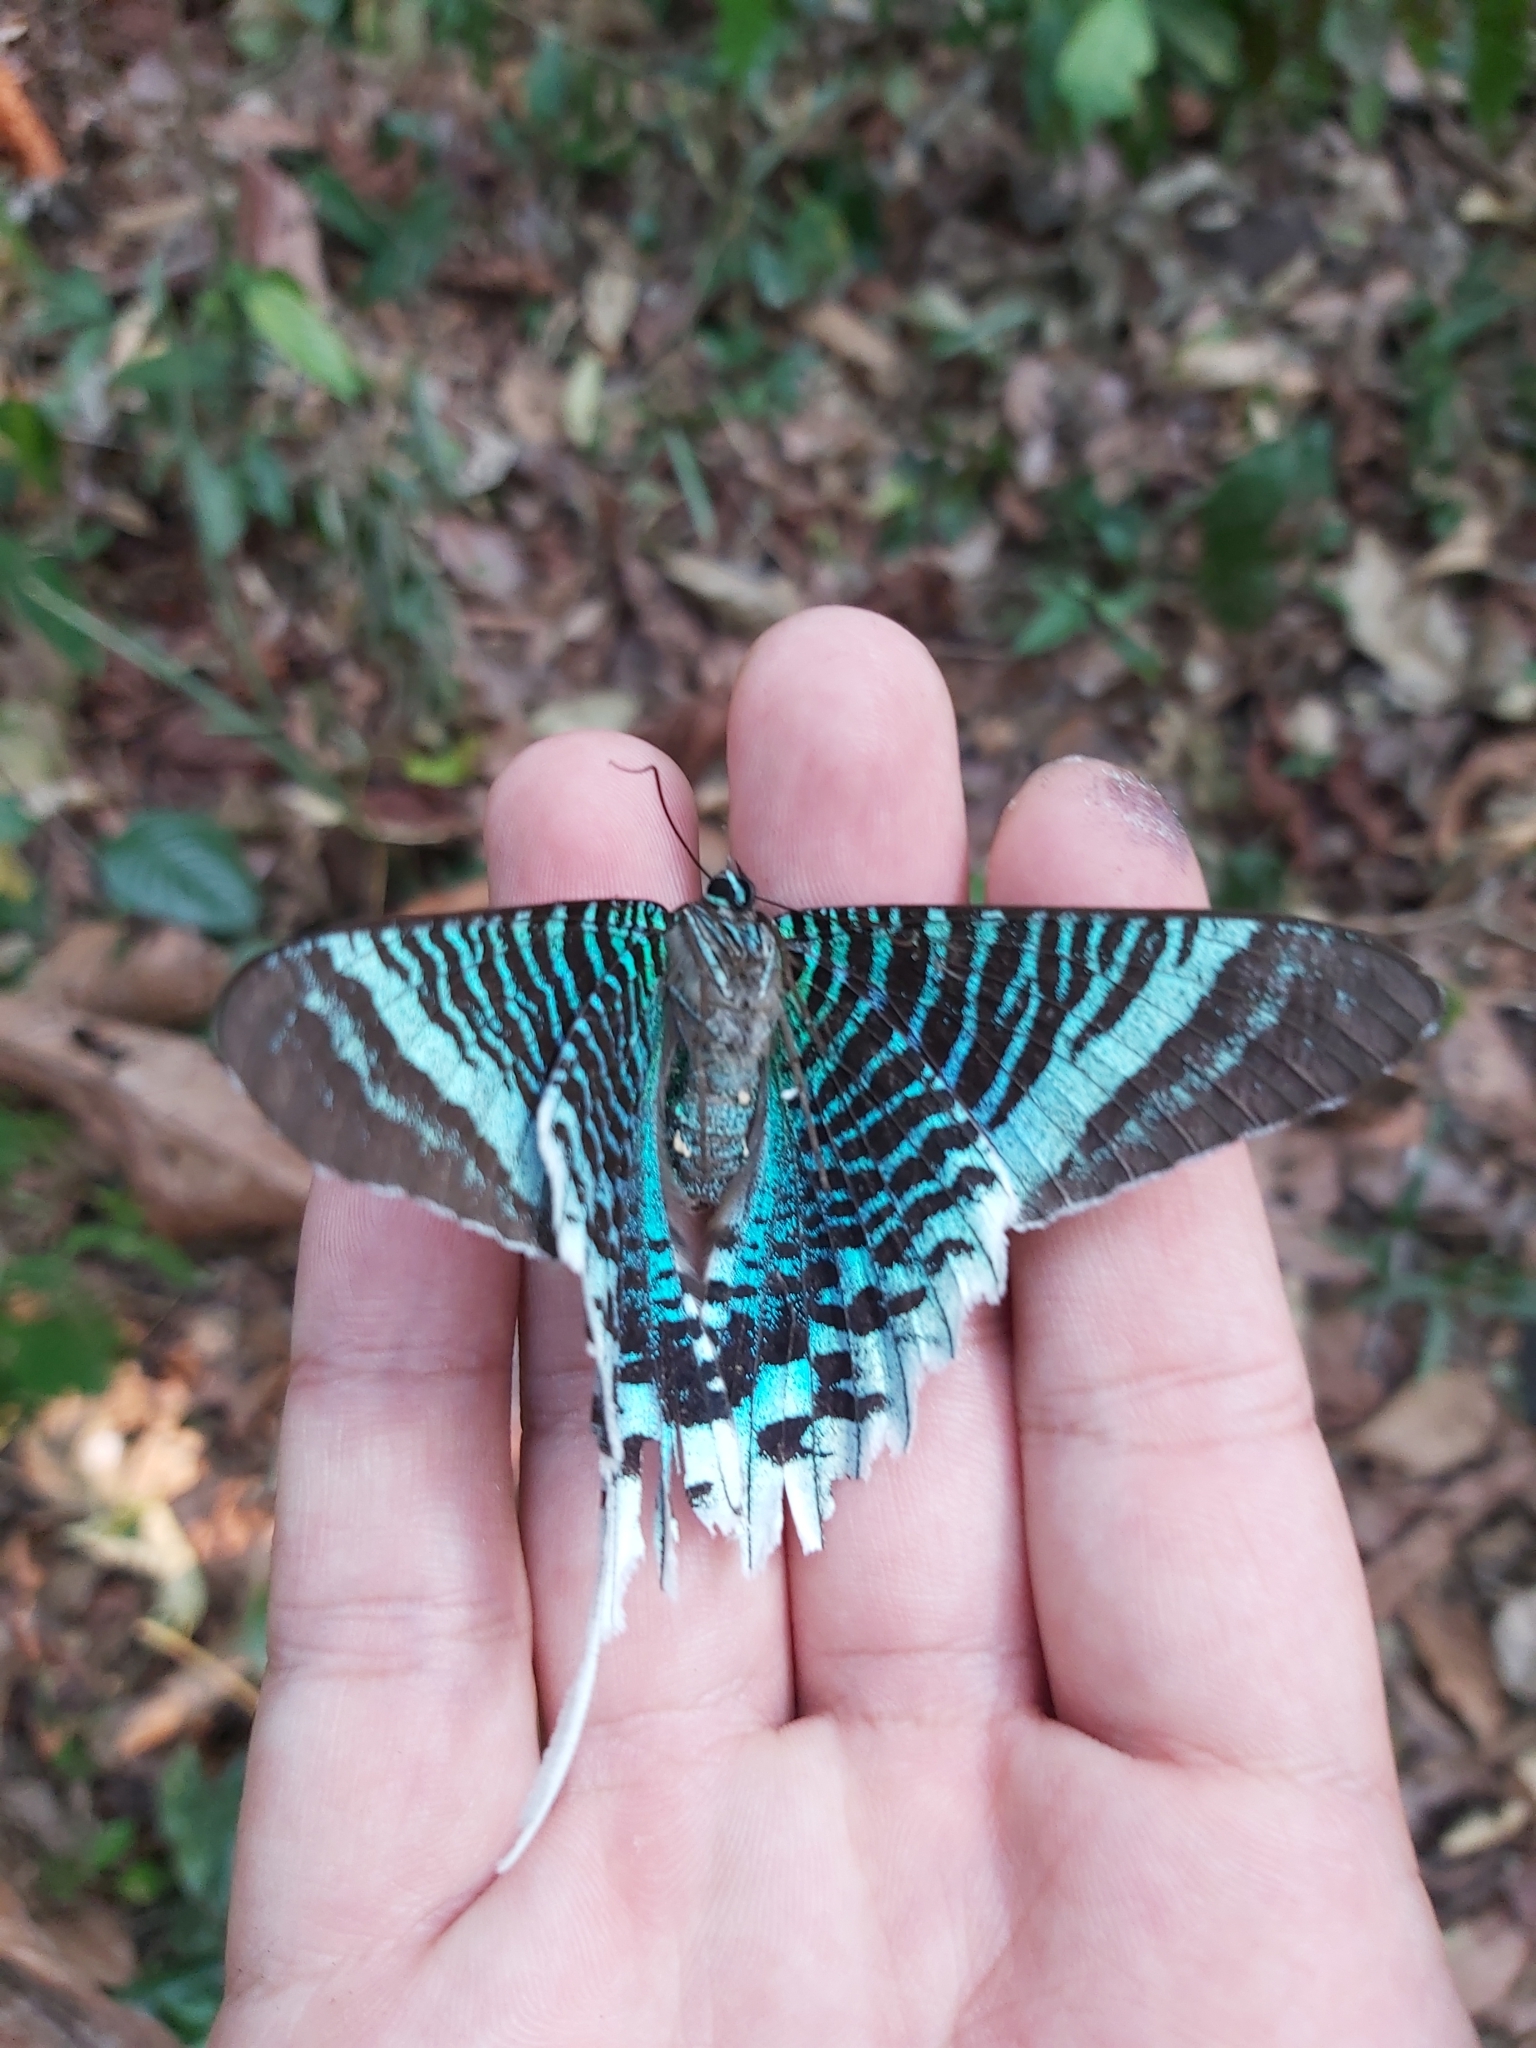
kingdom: Animalia
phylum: Arthropoda
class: Insecta
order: Lepidoptera
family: Uraniidae
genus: Urania
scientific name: Urania leilus
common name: Peacock moth
